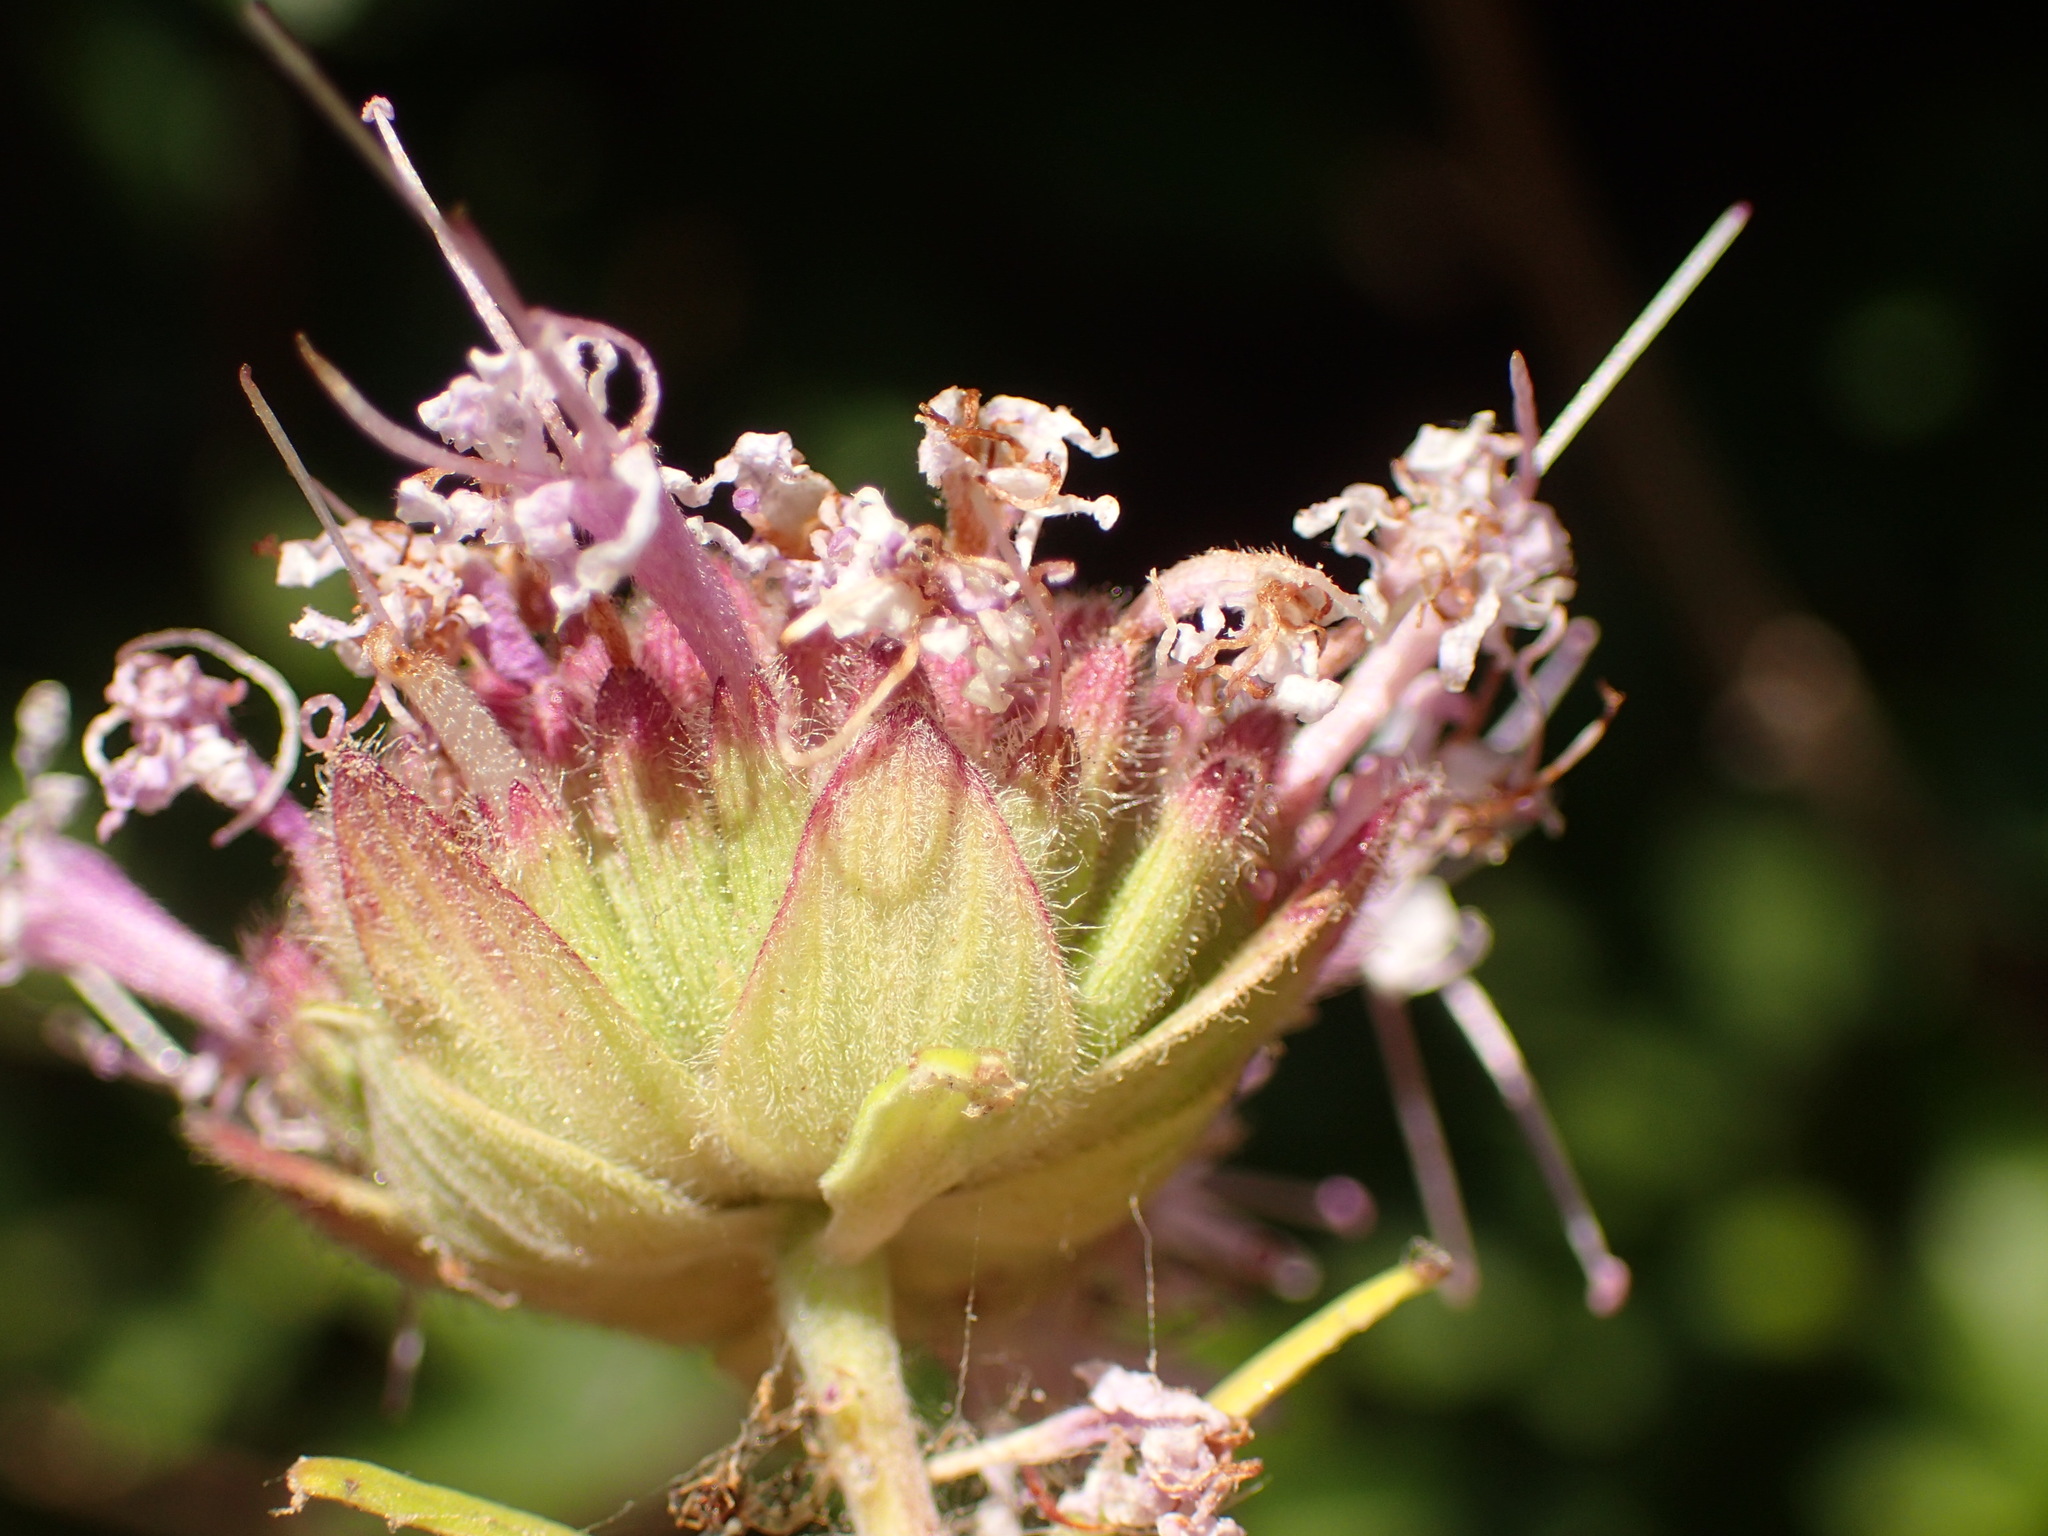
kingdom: Plantae
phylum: Tracheophyta
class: Magnoliopsida
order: Lamiales
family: Lamiaceae
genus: Monardella
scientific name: Monardella hypoleuca
